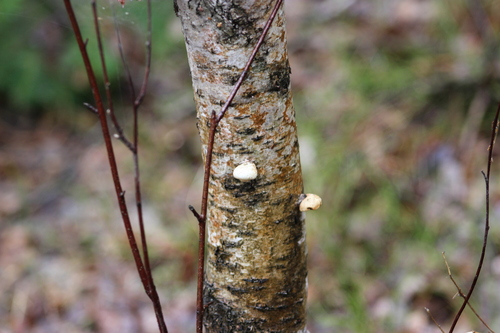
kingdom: Fungi
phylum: Basidiomycota
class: Agaricomycetes
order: Polyporales
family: Fomitopsidaceae
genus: Fomitopsis
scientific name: Fomitopsis betulina
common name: Birch polypore
